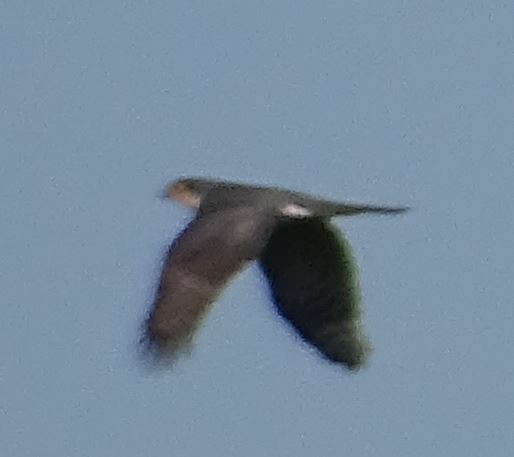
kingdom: Animalia
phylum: Chordata
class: Aves
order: Accipitriformes
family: Accipitridae
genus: Accipiter
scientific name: Accipiter nisus
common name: Eurasian sparrowhawk
